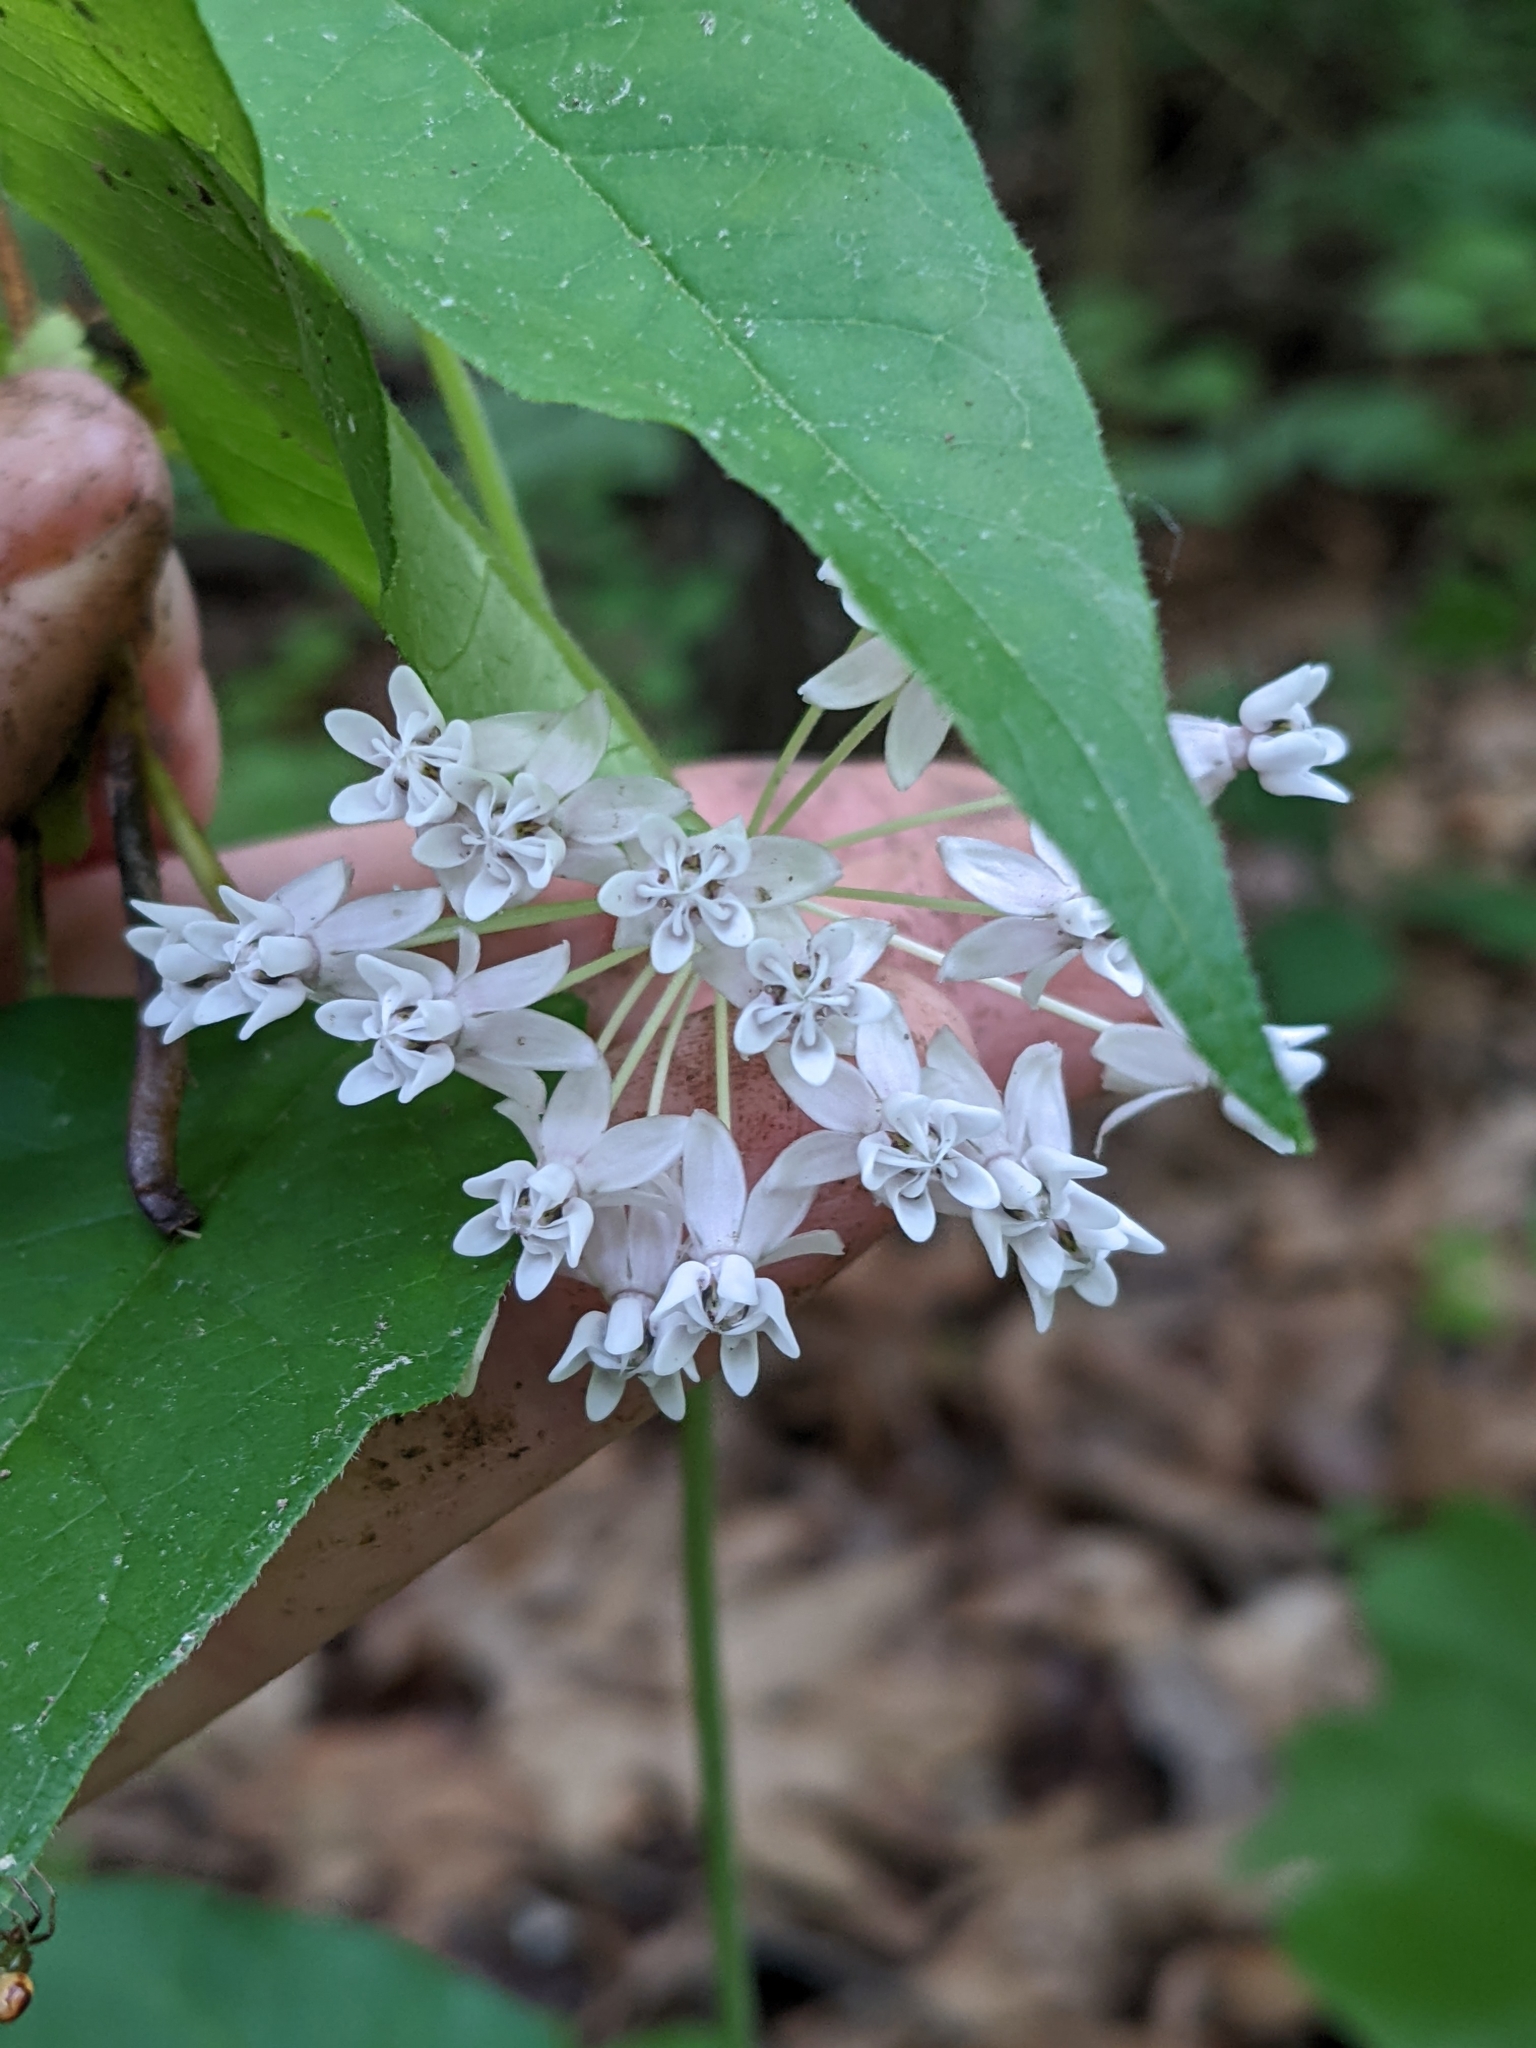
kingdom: Plantae
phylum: Tracheophyta
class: Magnoliopsida
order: Gentianales
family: Apocynaceae
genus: Asclepias
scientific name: Asclepias quadrifolia
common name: Whorled milkweed
